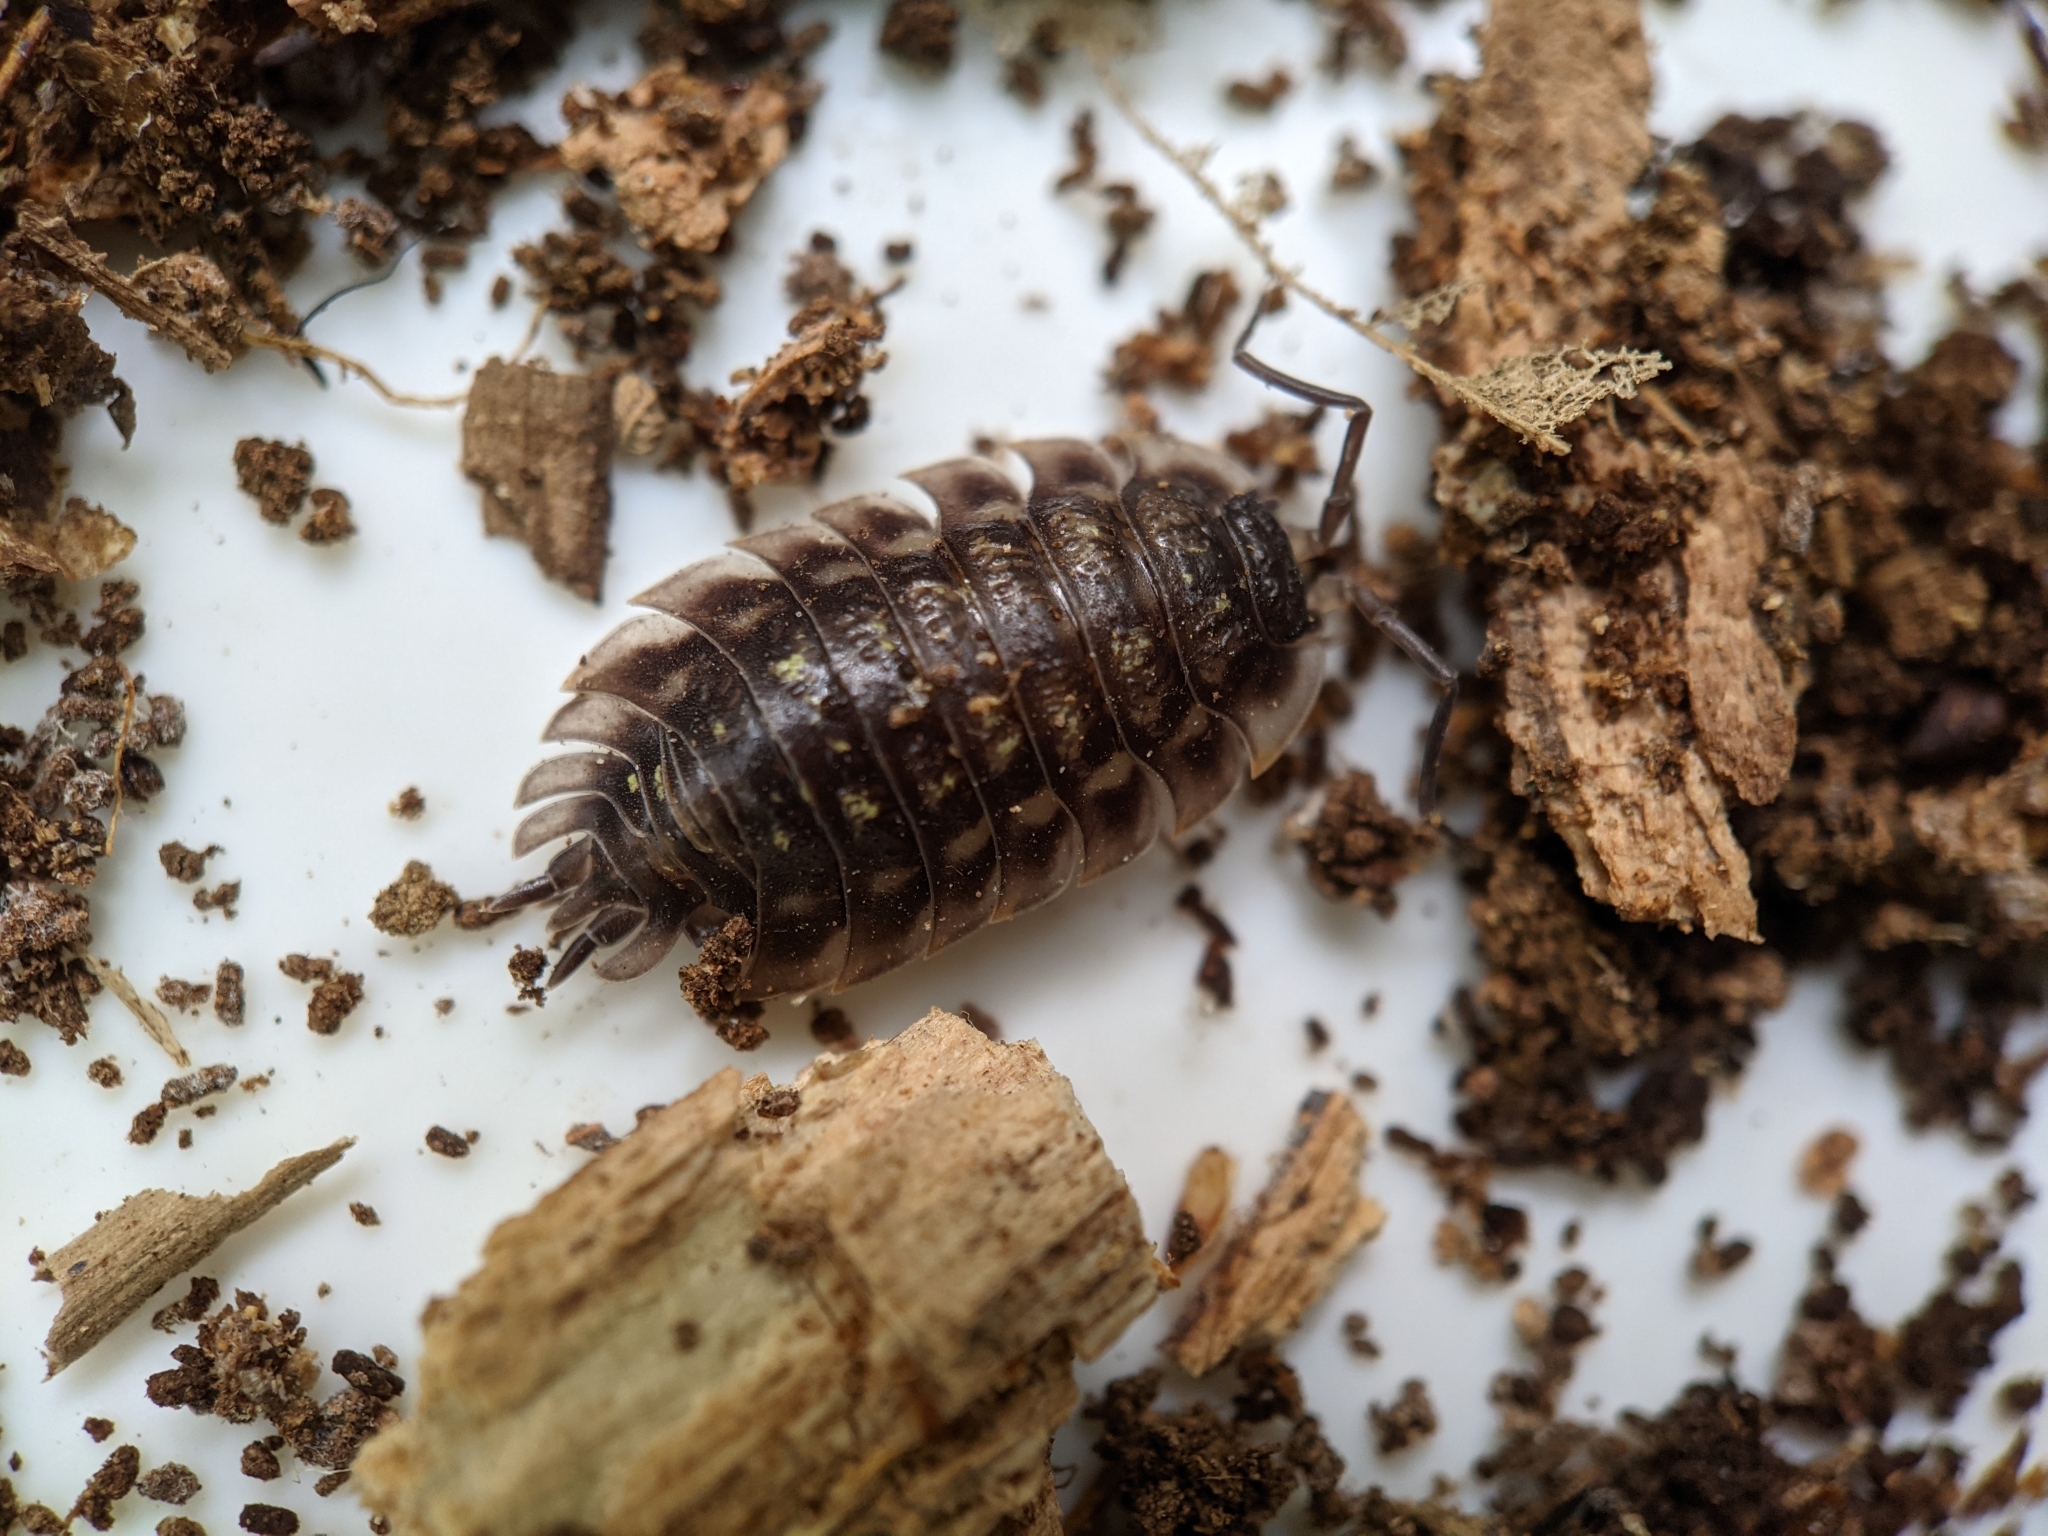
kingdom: Animalia
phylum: Arthropoda
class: Malacostraca
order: Isopoda
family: Oniscidae
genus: Oniscus
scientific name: Oniscus asellus
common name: Common shiny woodlouse
